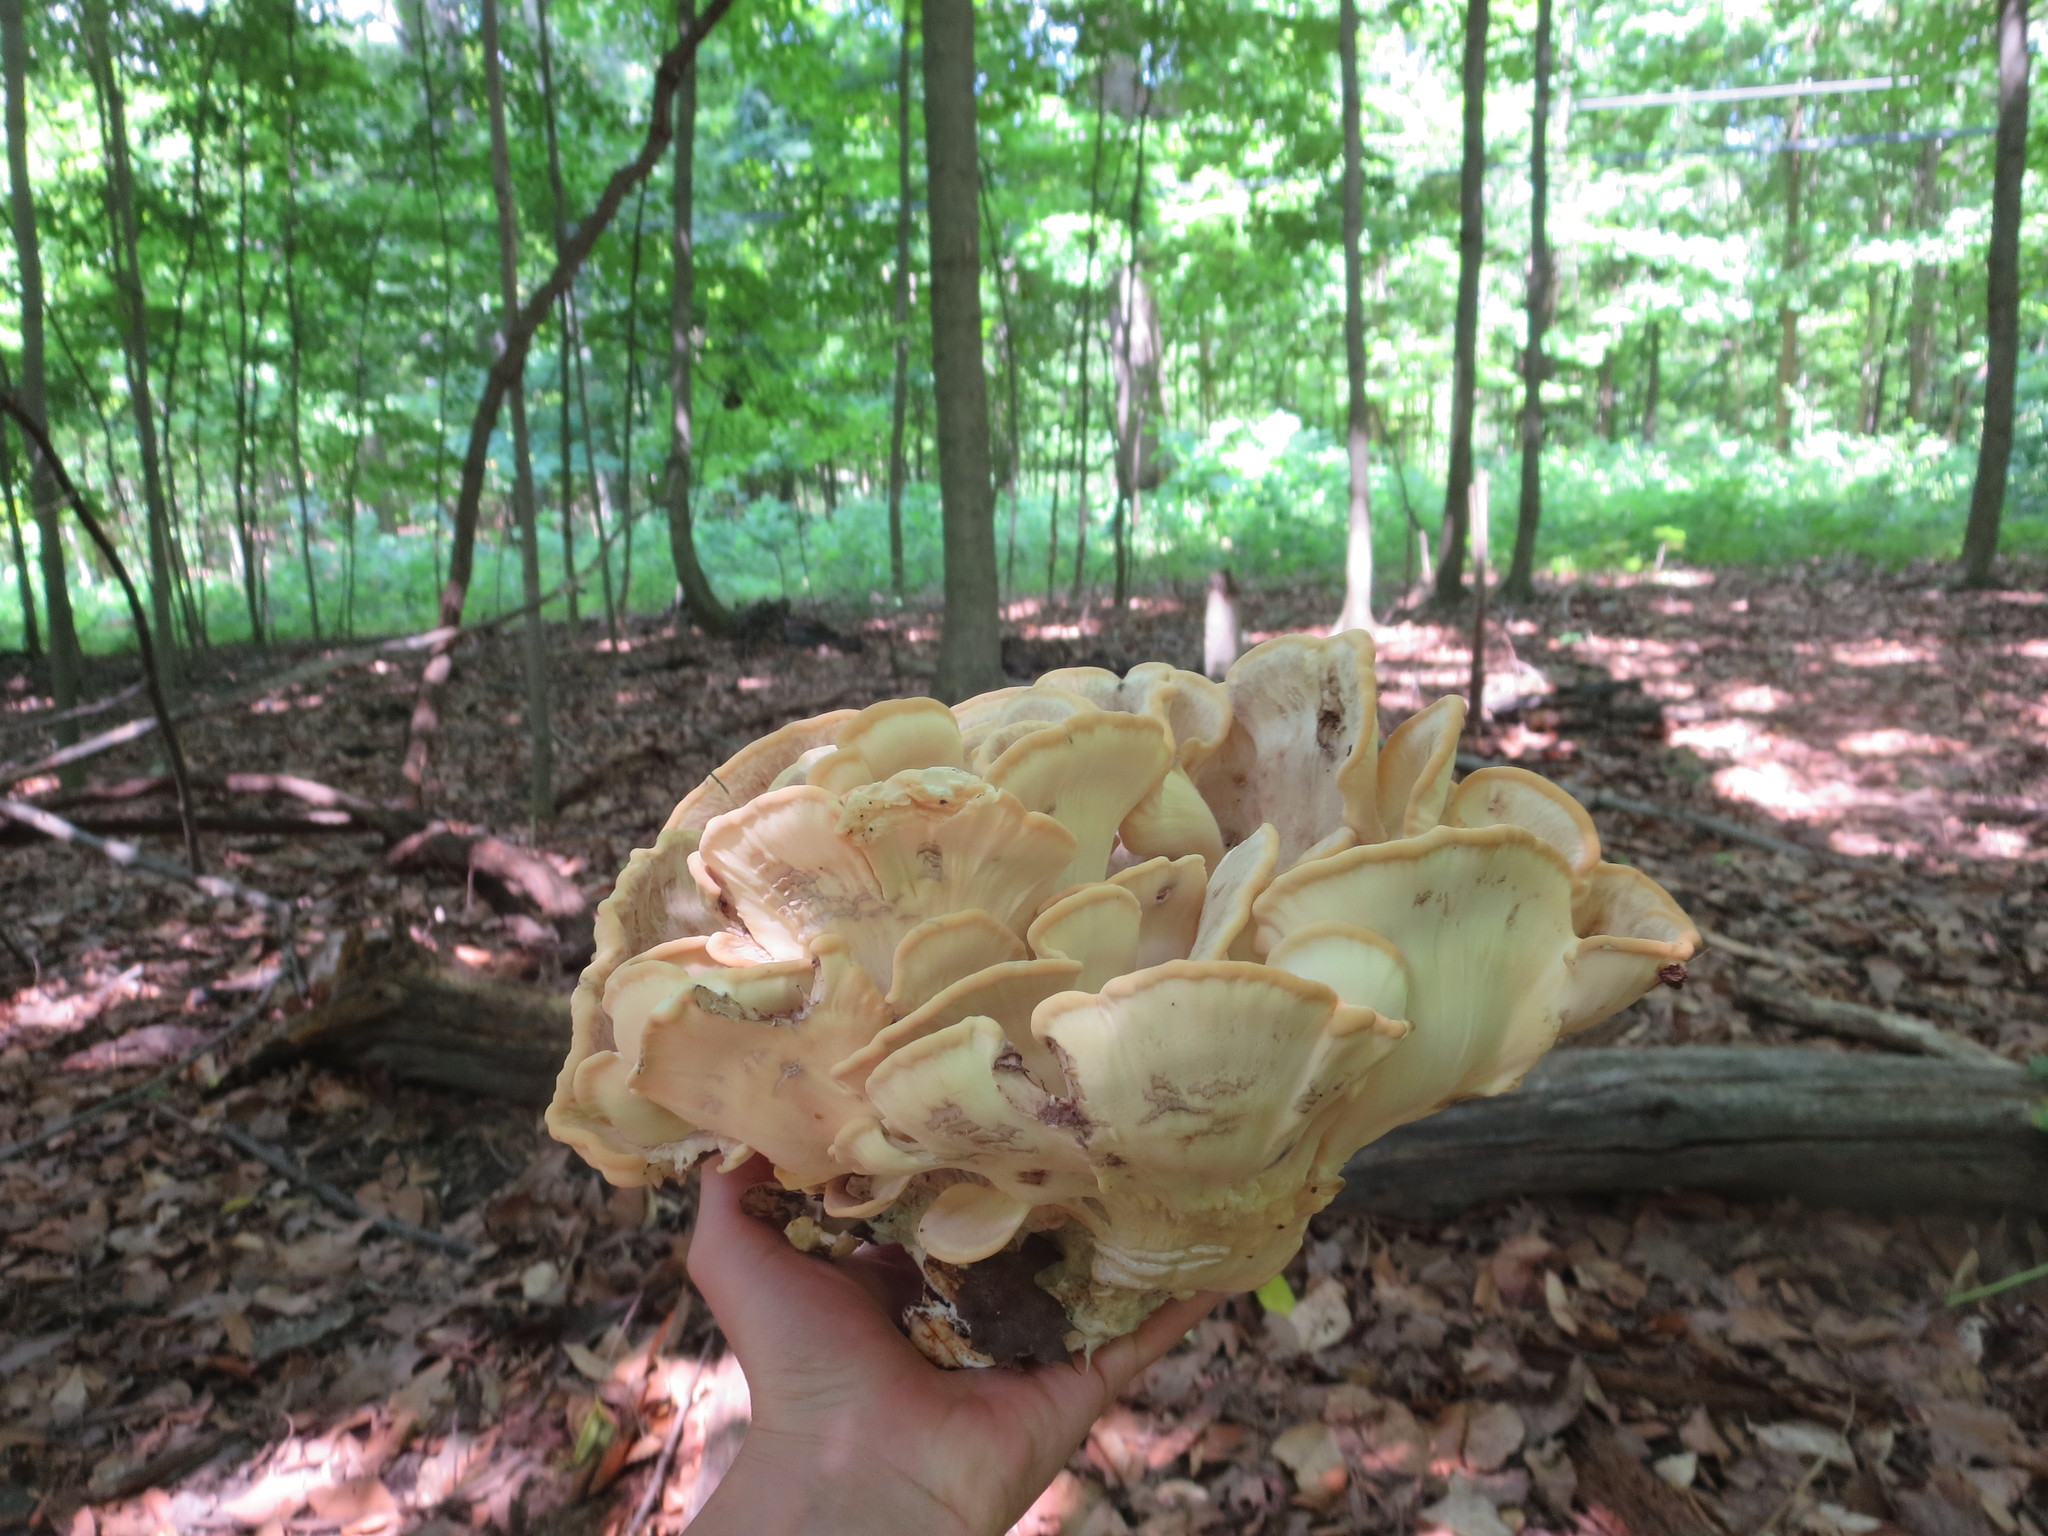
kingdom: Fungi
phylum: Basidiomycota
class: Agaricomycetes
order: Polyporales
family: Meripilaceae
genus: Meripilus
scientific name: Meripilus sumstinei
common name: Black-staining polypore
